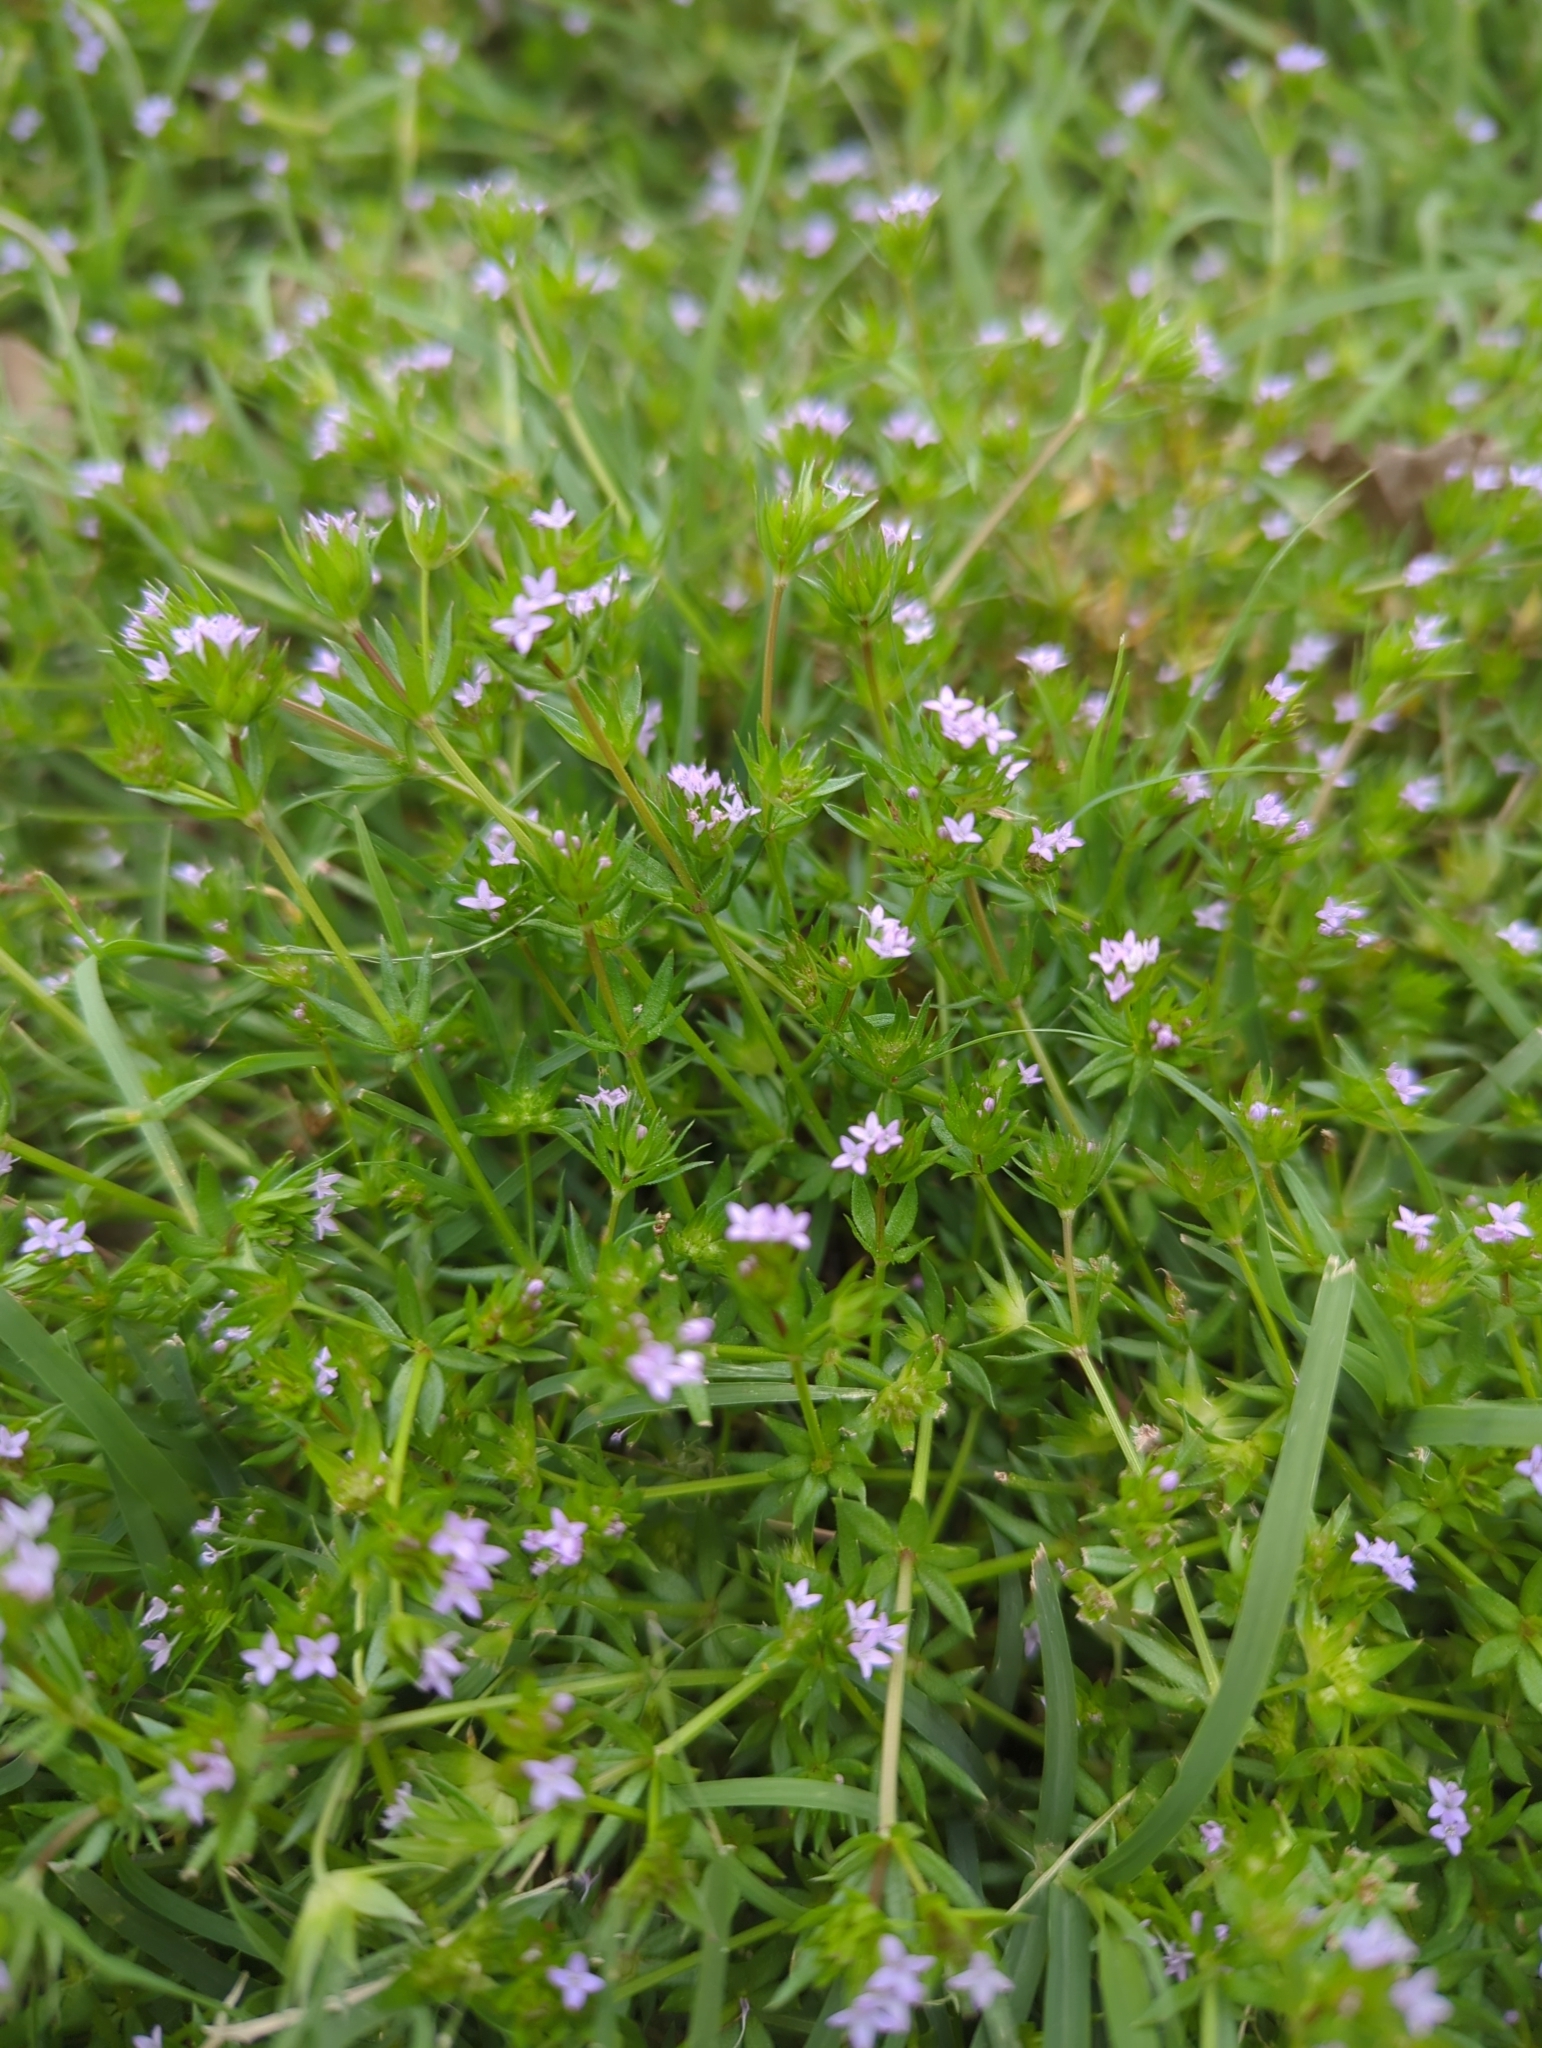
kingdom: Plantae
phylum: Tracheophyta
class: Magnoliopsida
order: Gentianales
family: Rubiaceae
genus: Sherardia
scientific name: Sherardia arvensis
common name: Field madder
